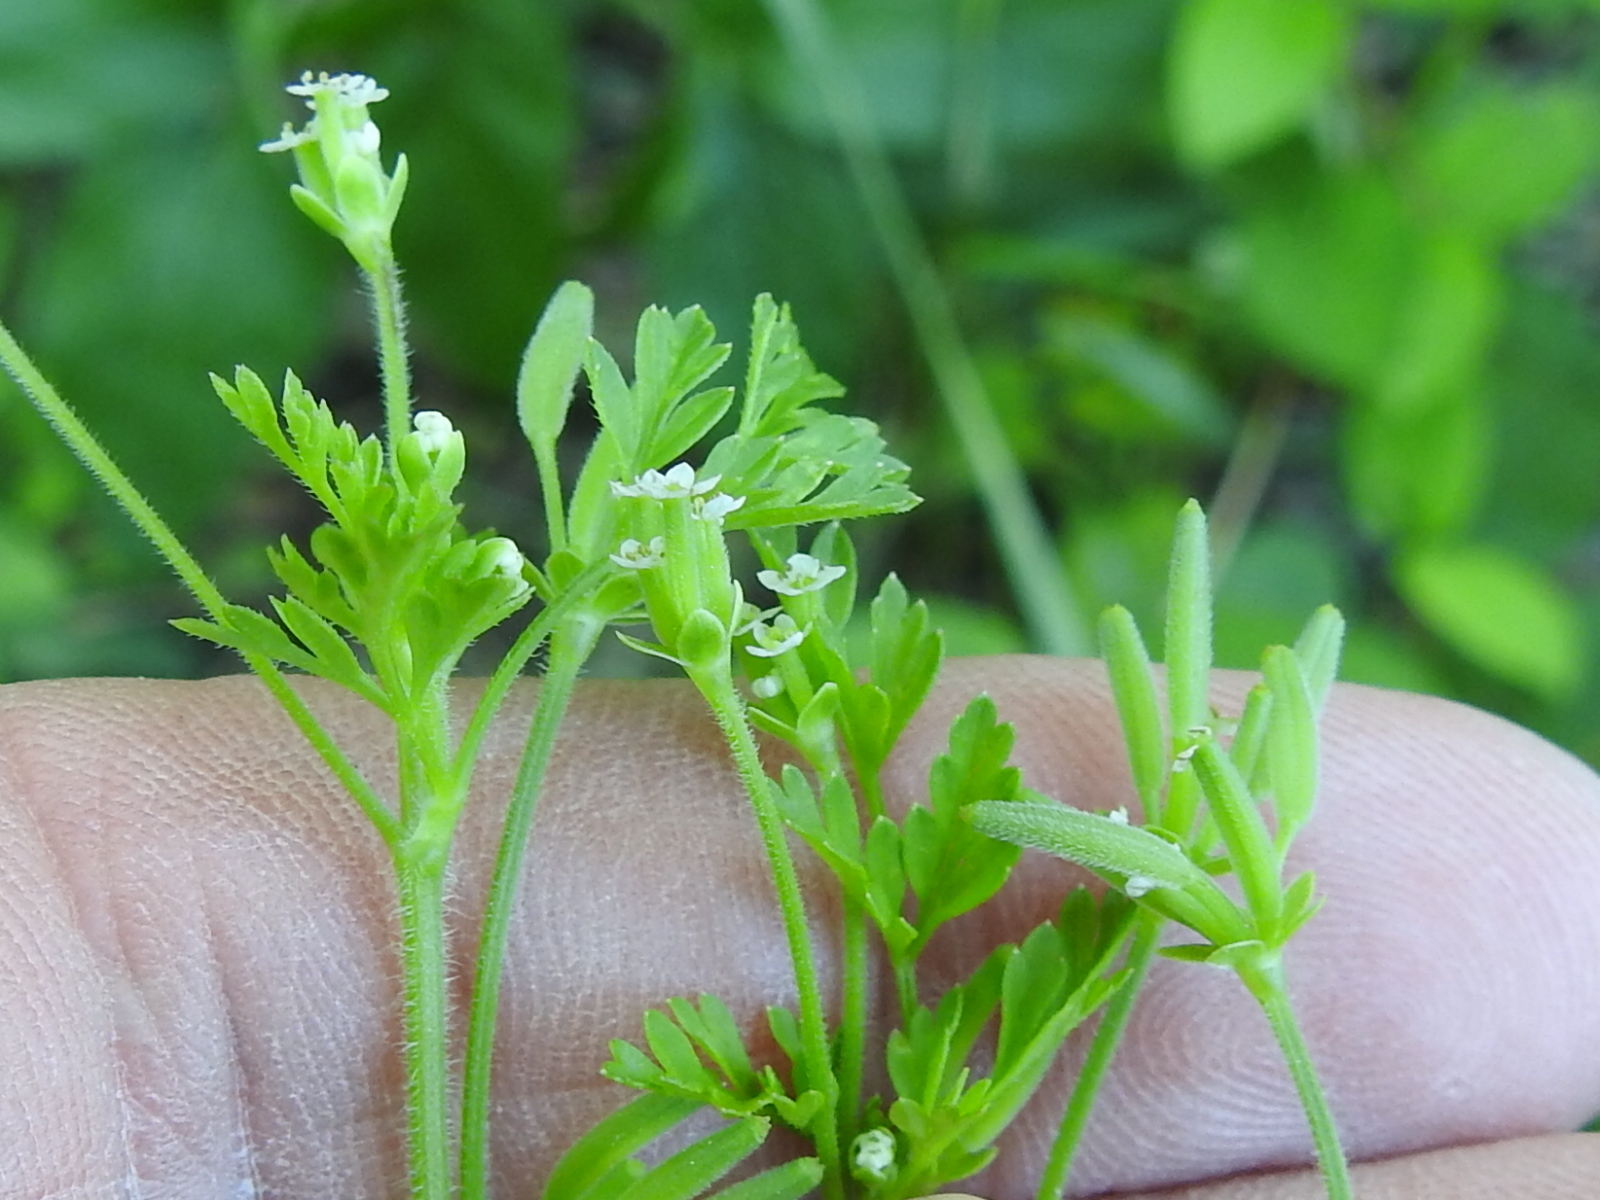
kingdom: Plantae
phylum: Tracheophyta
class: Magnoliopsida
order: Apiales
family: Apiaceae
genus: Chaerophyllum
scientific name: Chaerophyllum tainturieri
